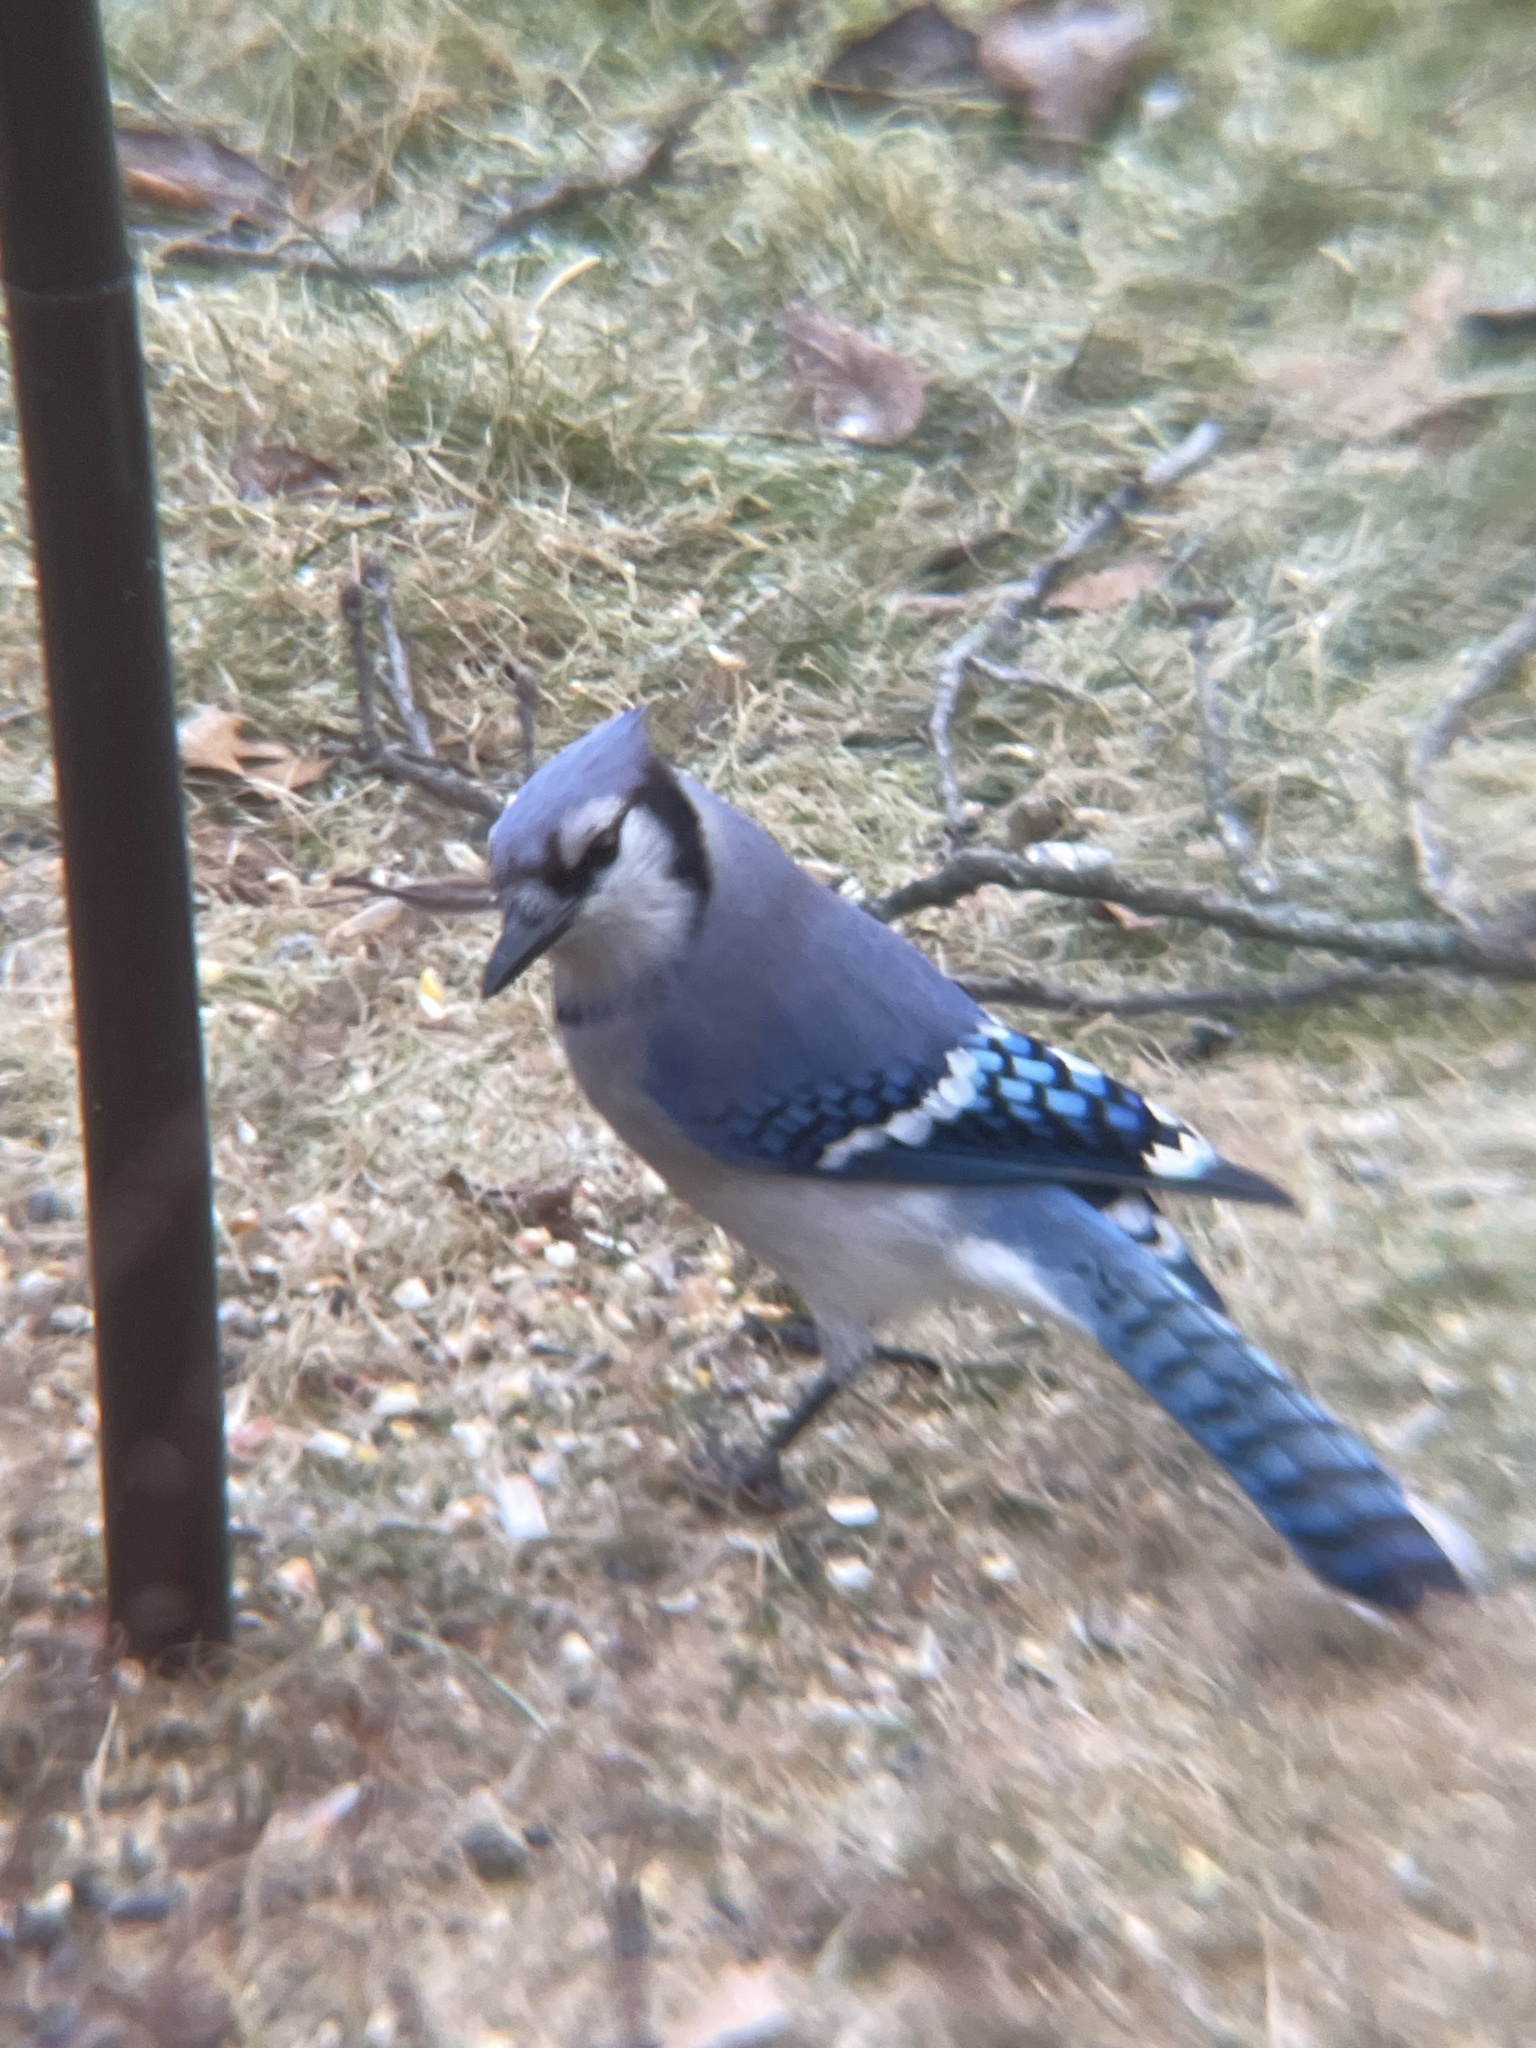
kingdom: Animalia
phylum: Chordata
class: Aves
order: Passeriformes
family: Corvidae
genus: Cyanocitta
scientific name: Cyanocitta cristata
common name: Blue jay
